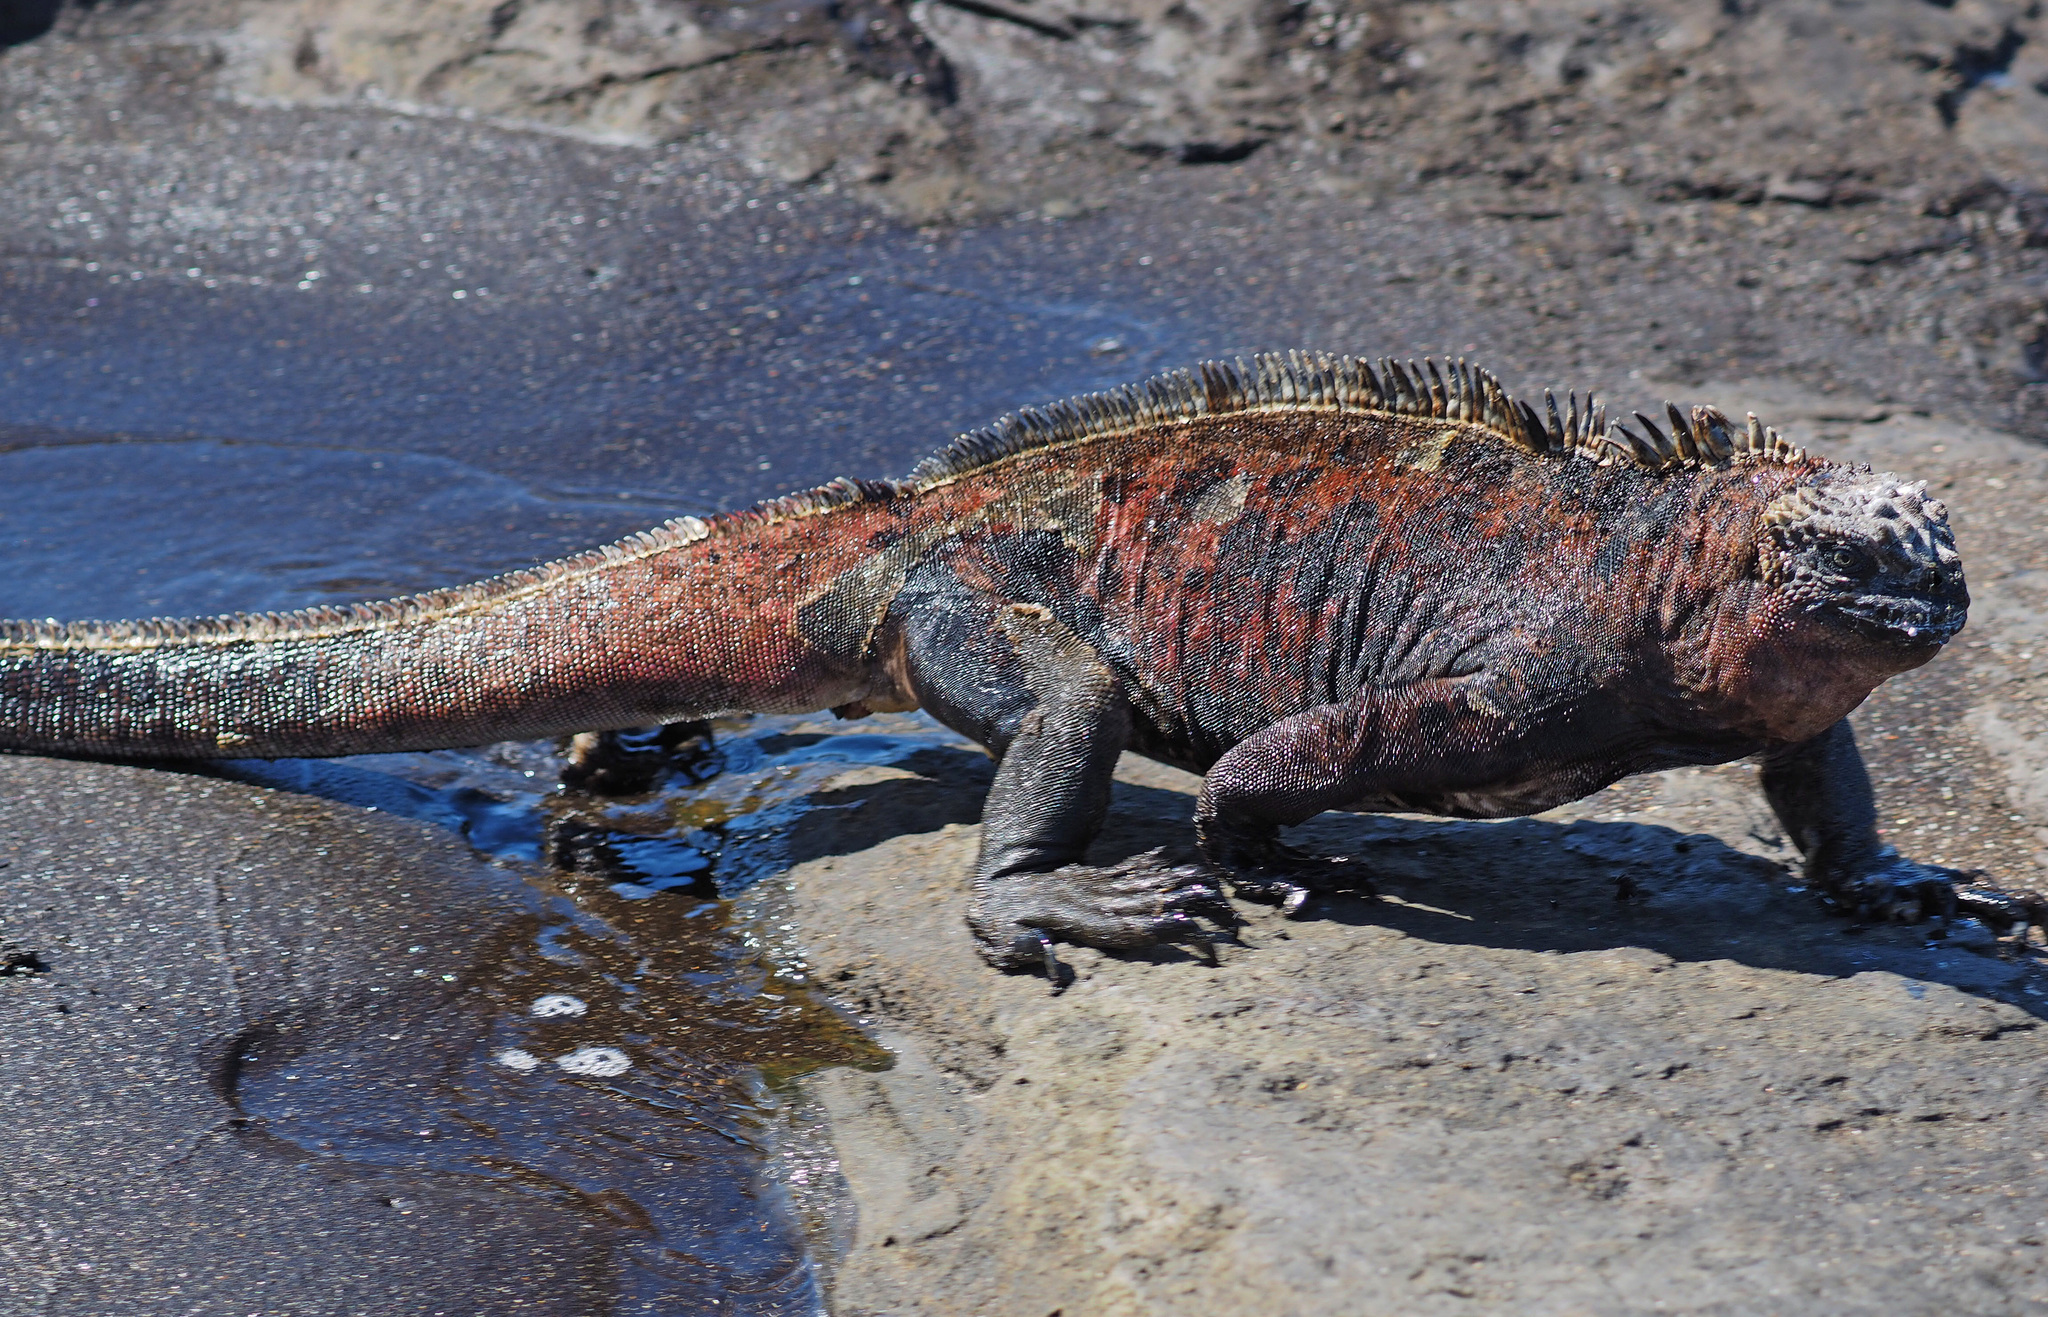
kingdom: Animalia
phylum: Chordata
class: Squamata
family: Iguanidae
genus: Amblyrhynchus
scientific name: Amblyrhynchus cristatus
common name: Marine iguana
